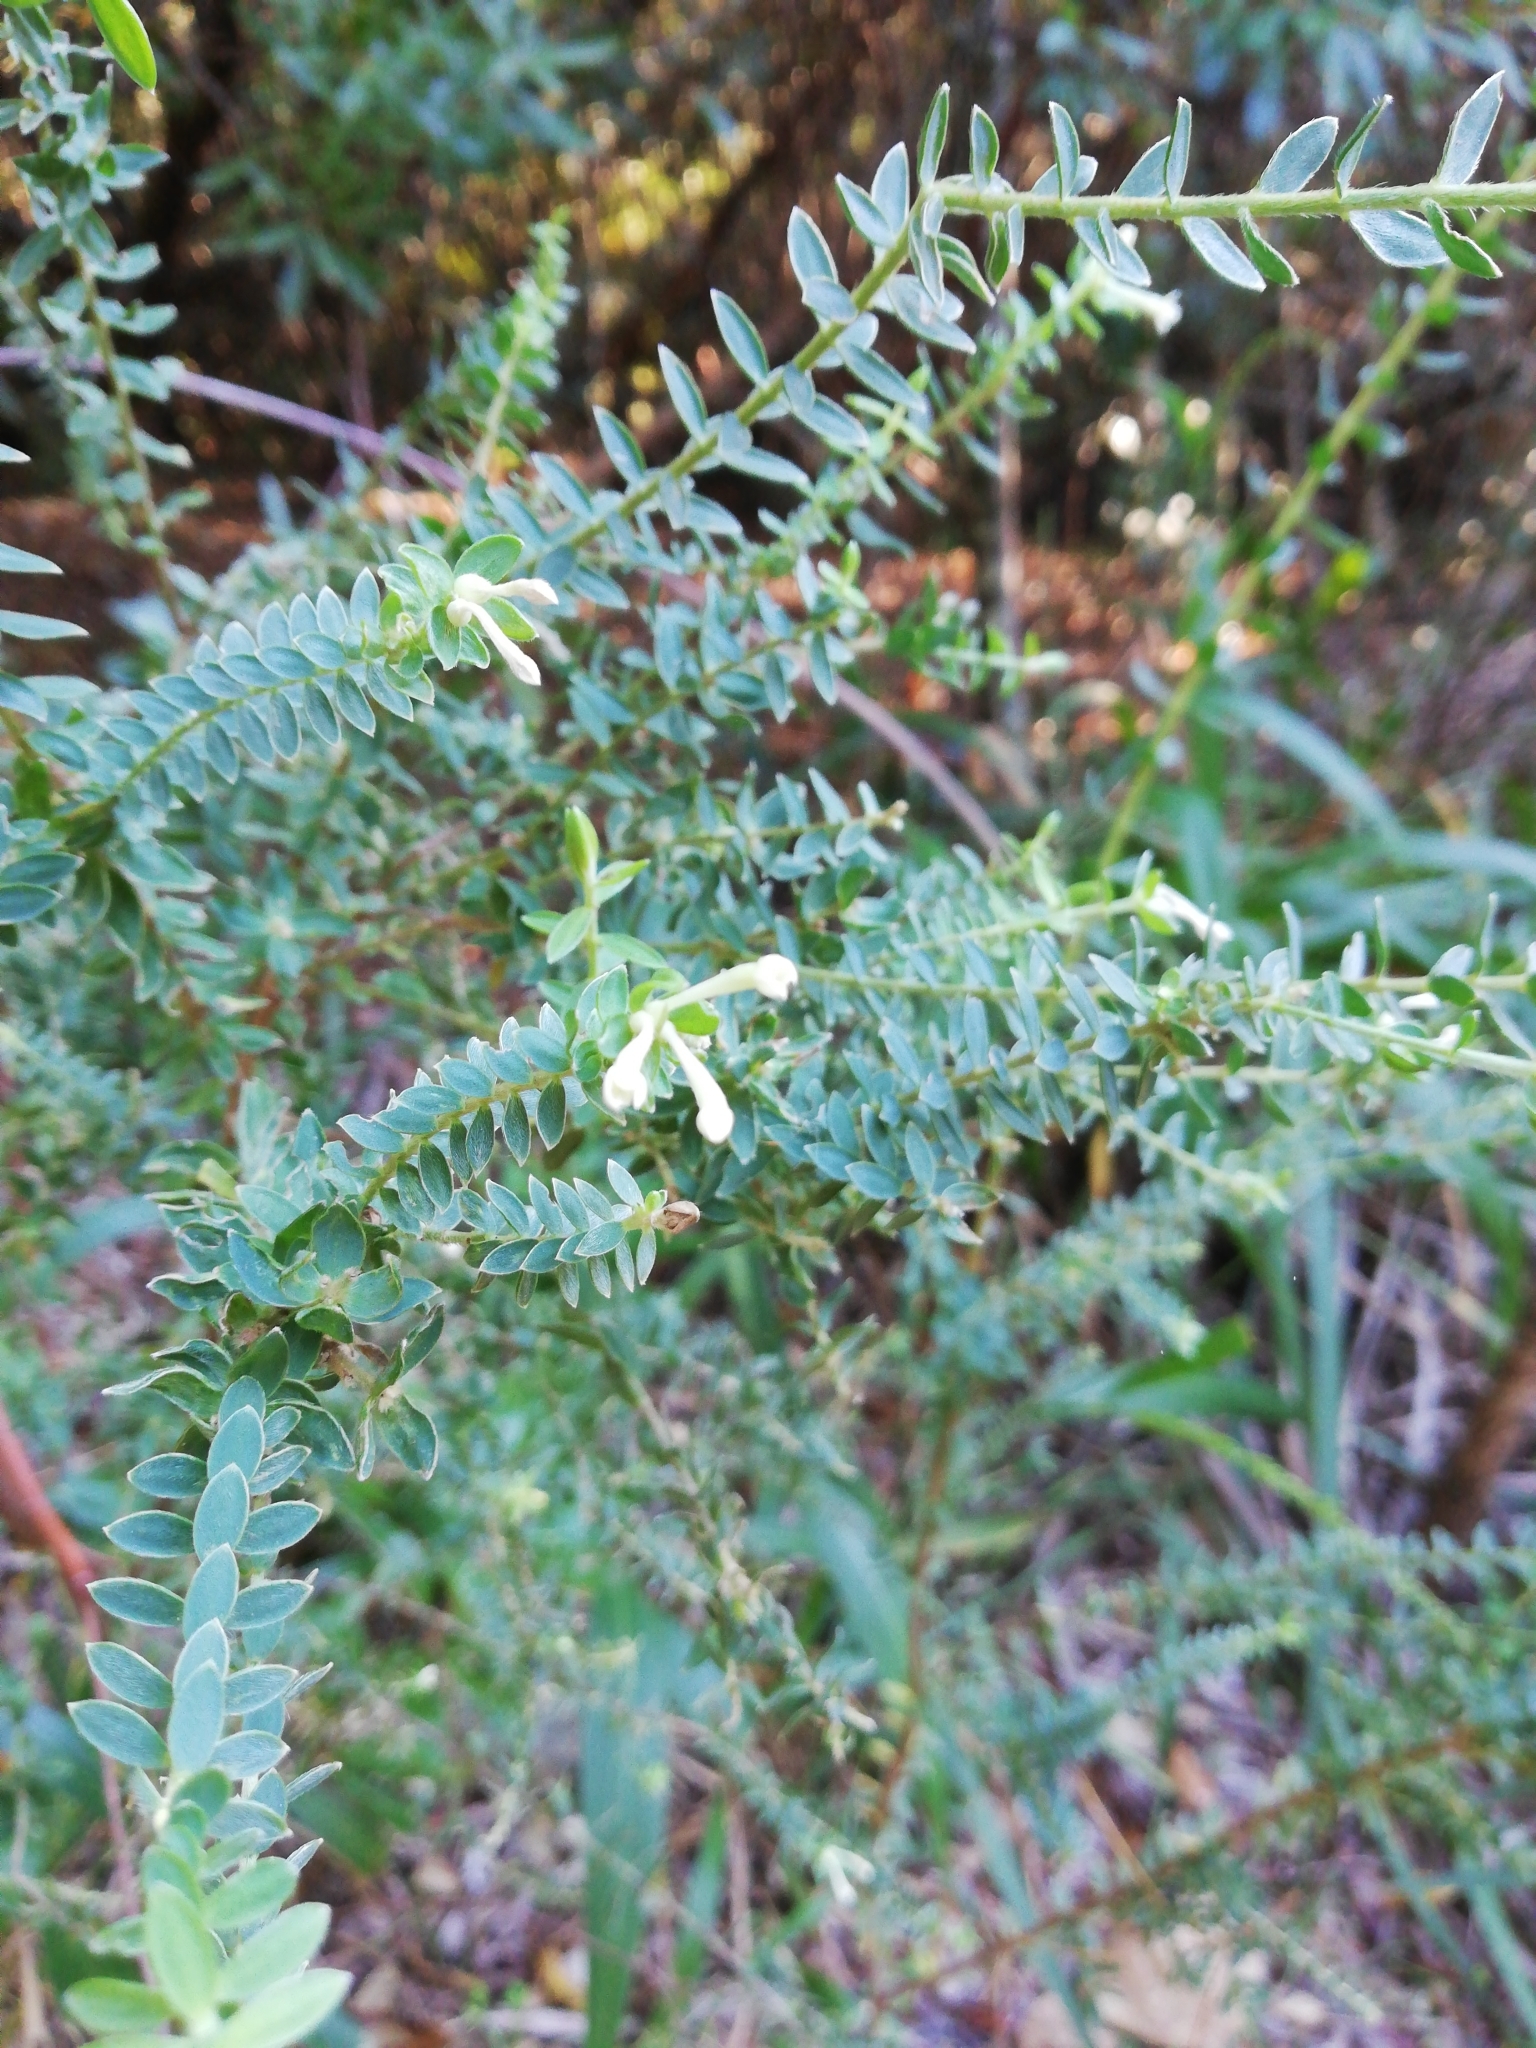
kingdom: Plantae
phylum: Tracheophyta
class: Magnoliopsida
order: Malvales
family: Thymelaeaceae
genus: Gnidia
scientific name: Gnidia sericea
